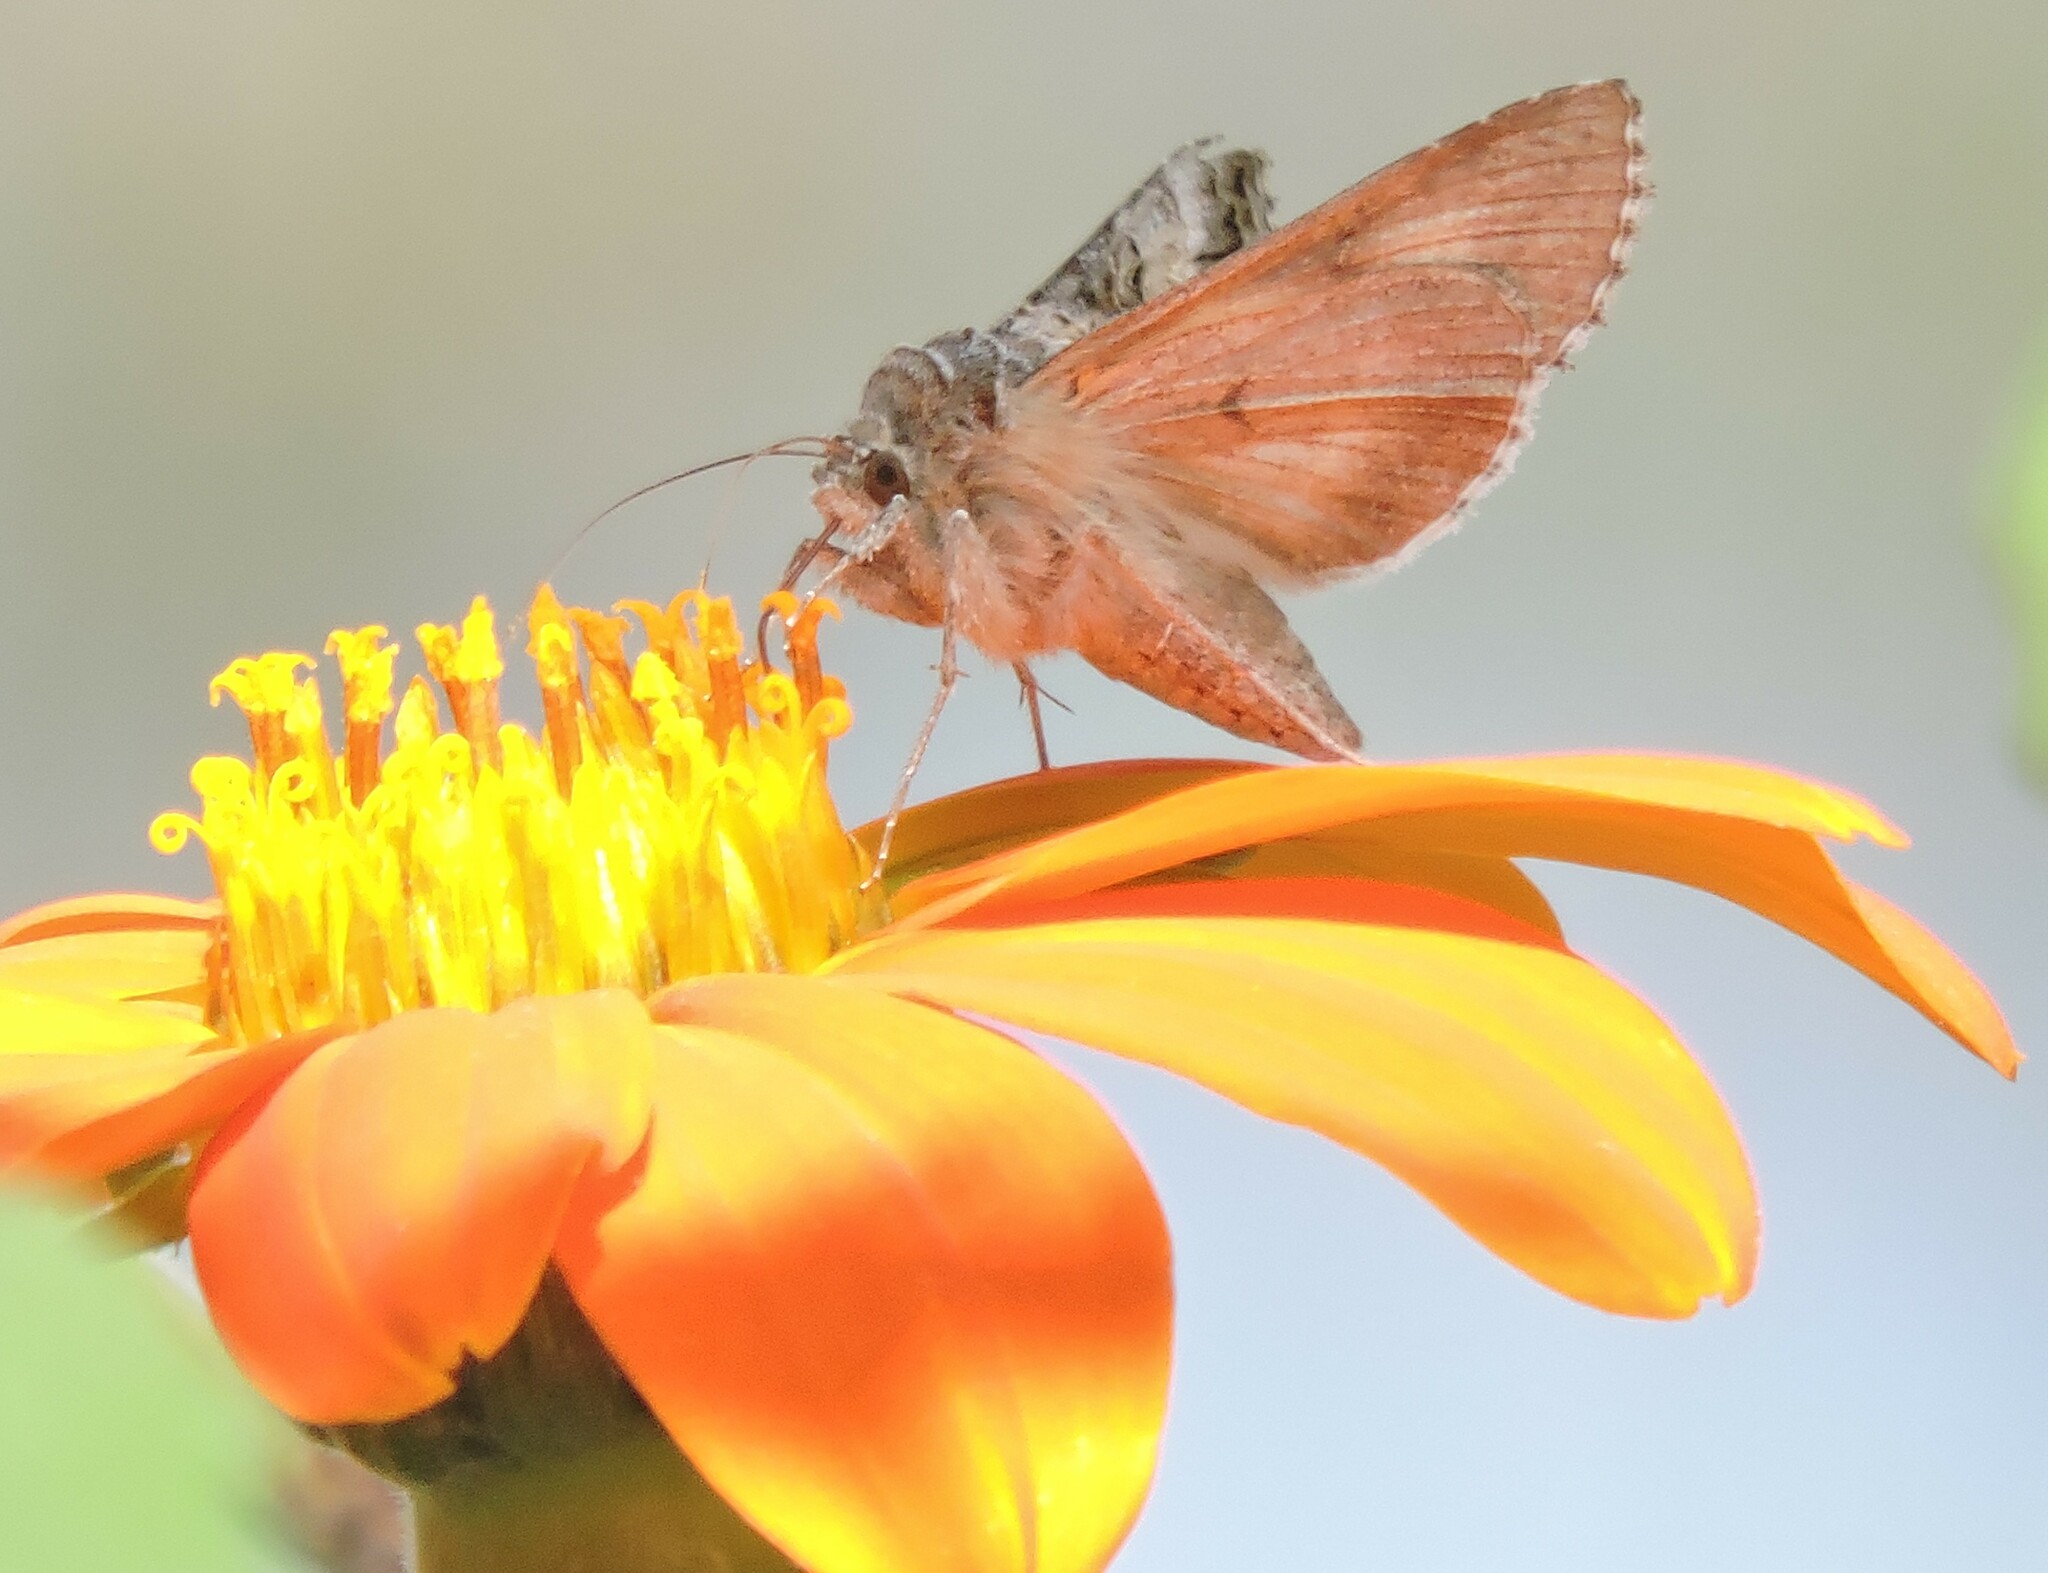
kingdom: Animalia
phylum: Arthropoda
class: Insecta
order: Lepidoptera
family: Noctuidae
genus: Autographa
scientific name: Autographa californica
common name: Alfalfa looper
